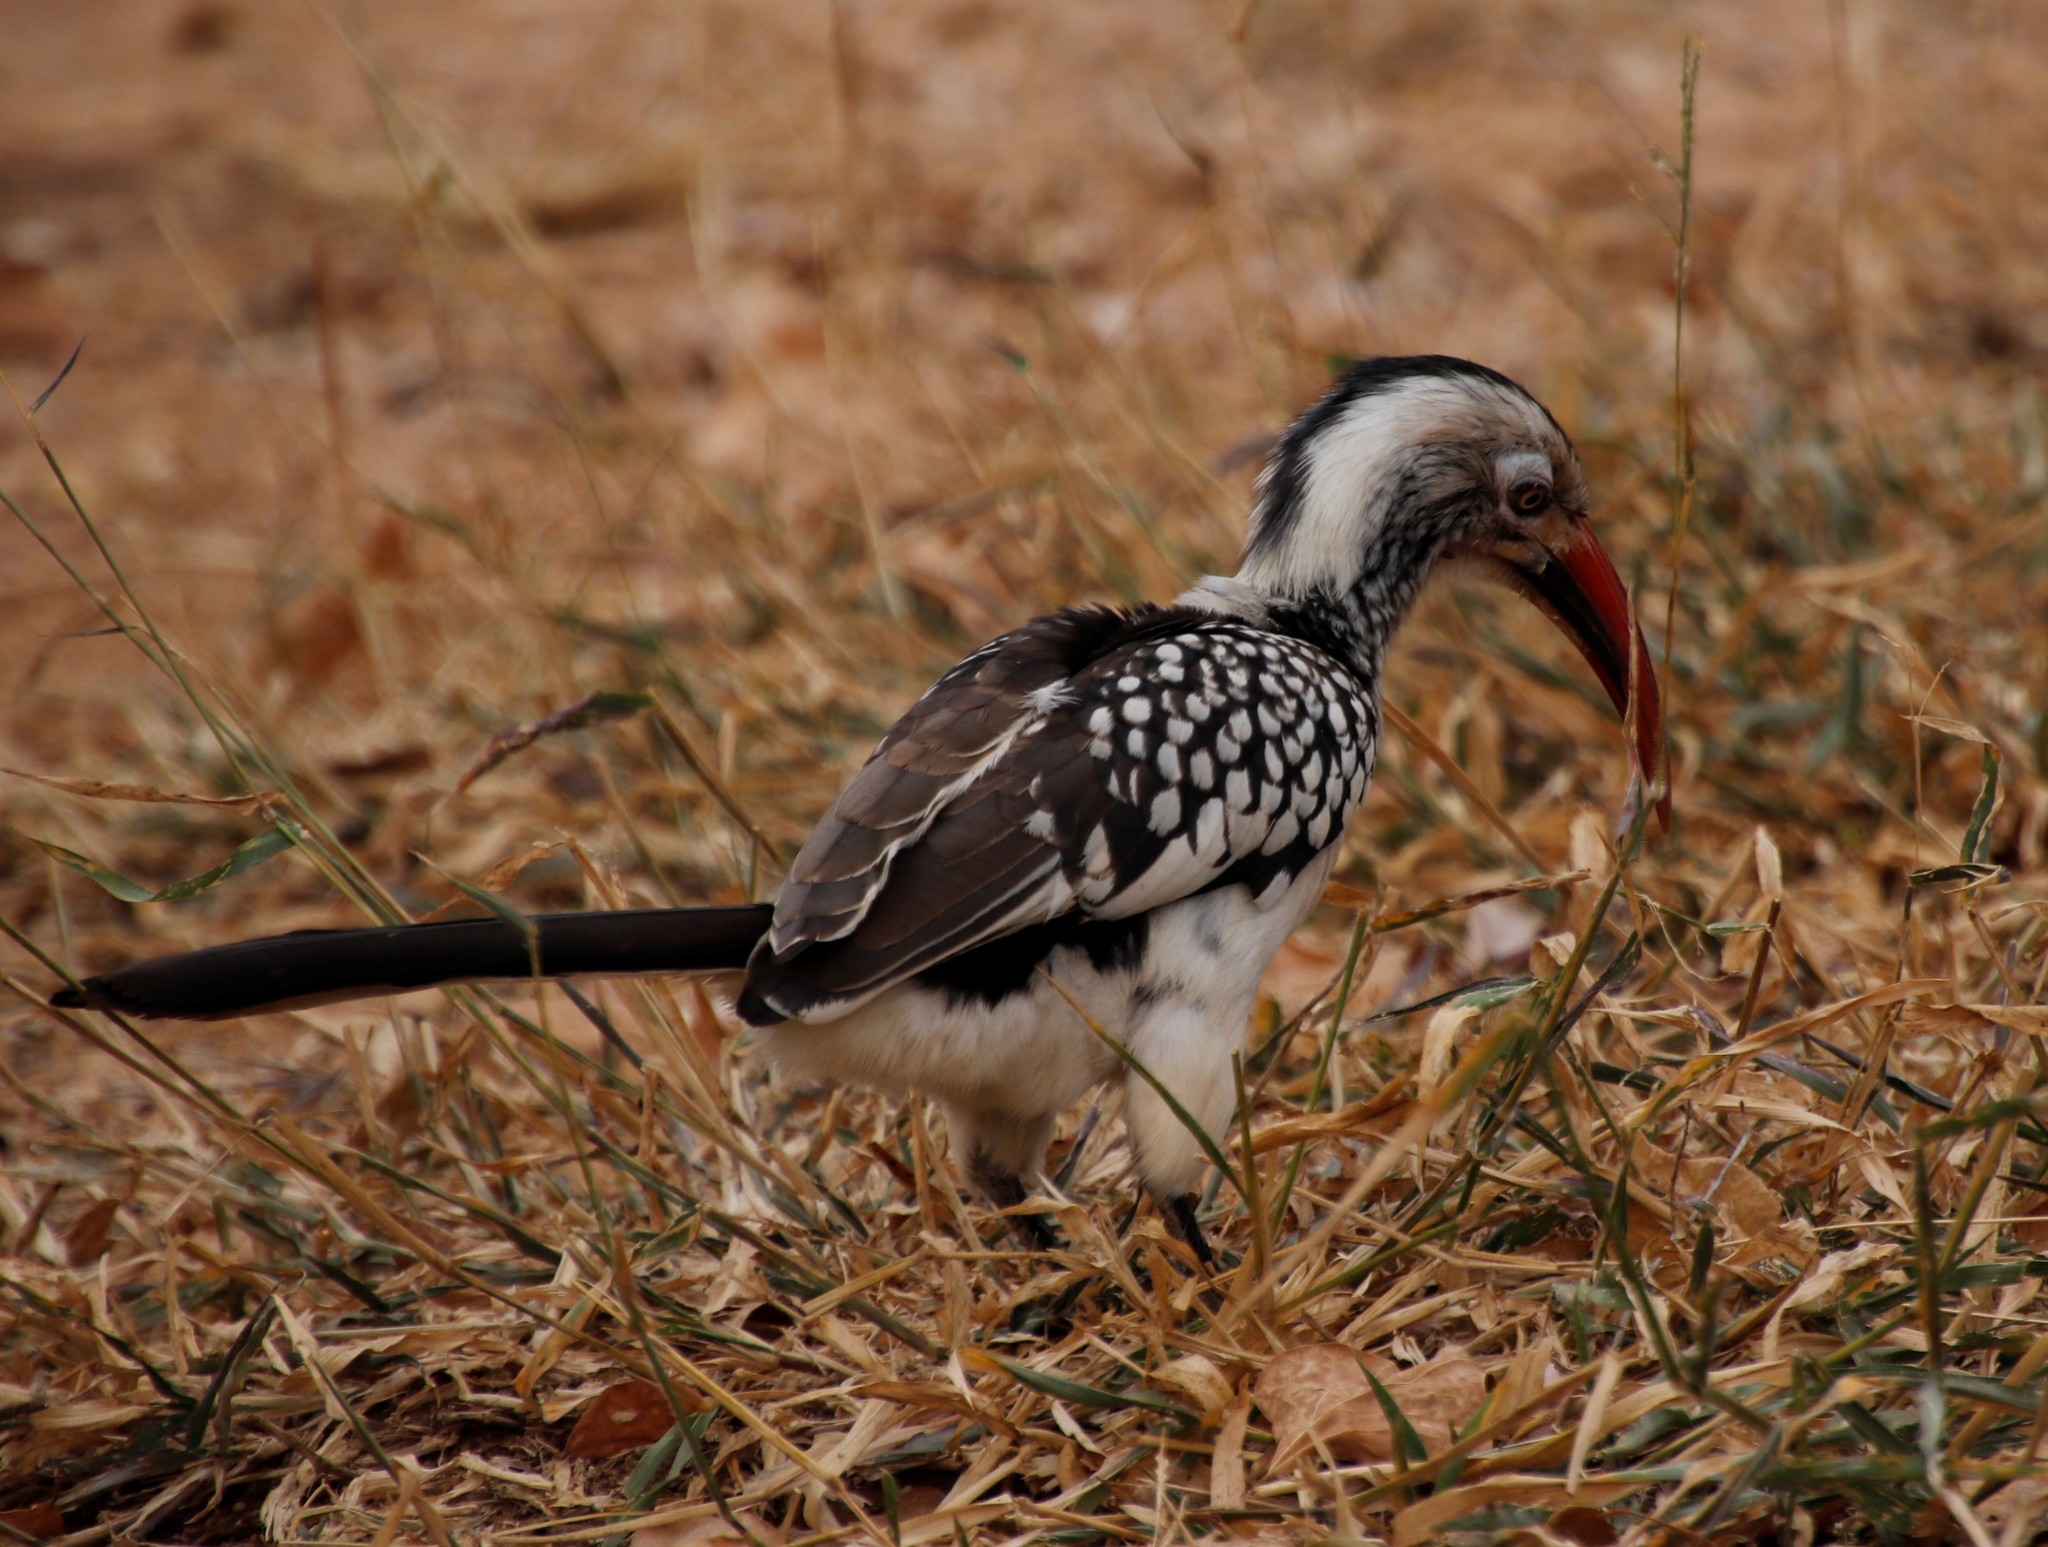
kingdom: Animalia
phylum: Chordata
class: Aves
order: Bucerotiformes
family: Bucerotidae
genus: Tockus
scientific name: Tockus rufirostris
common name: Southern red-billed hornbill
